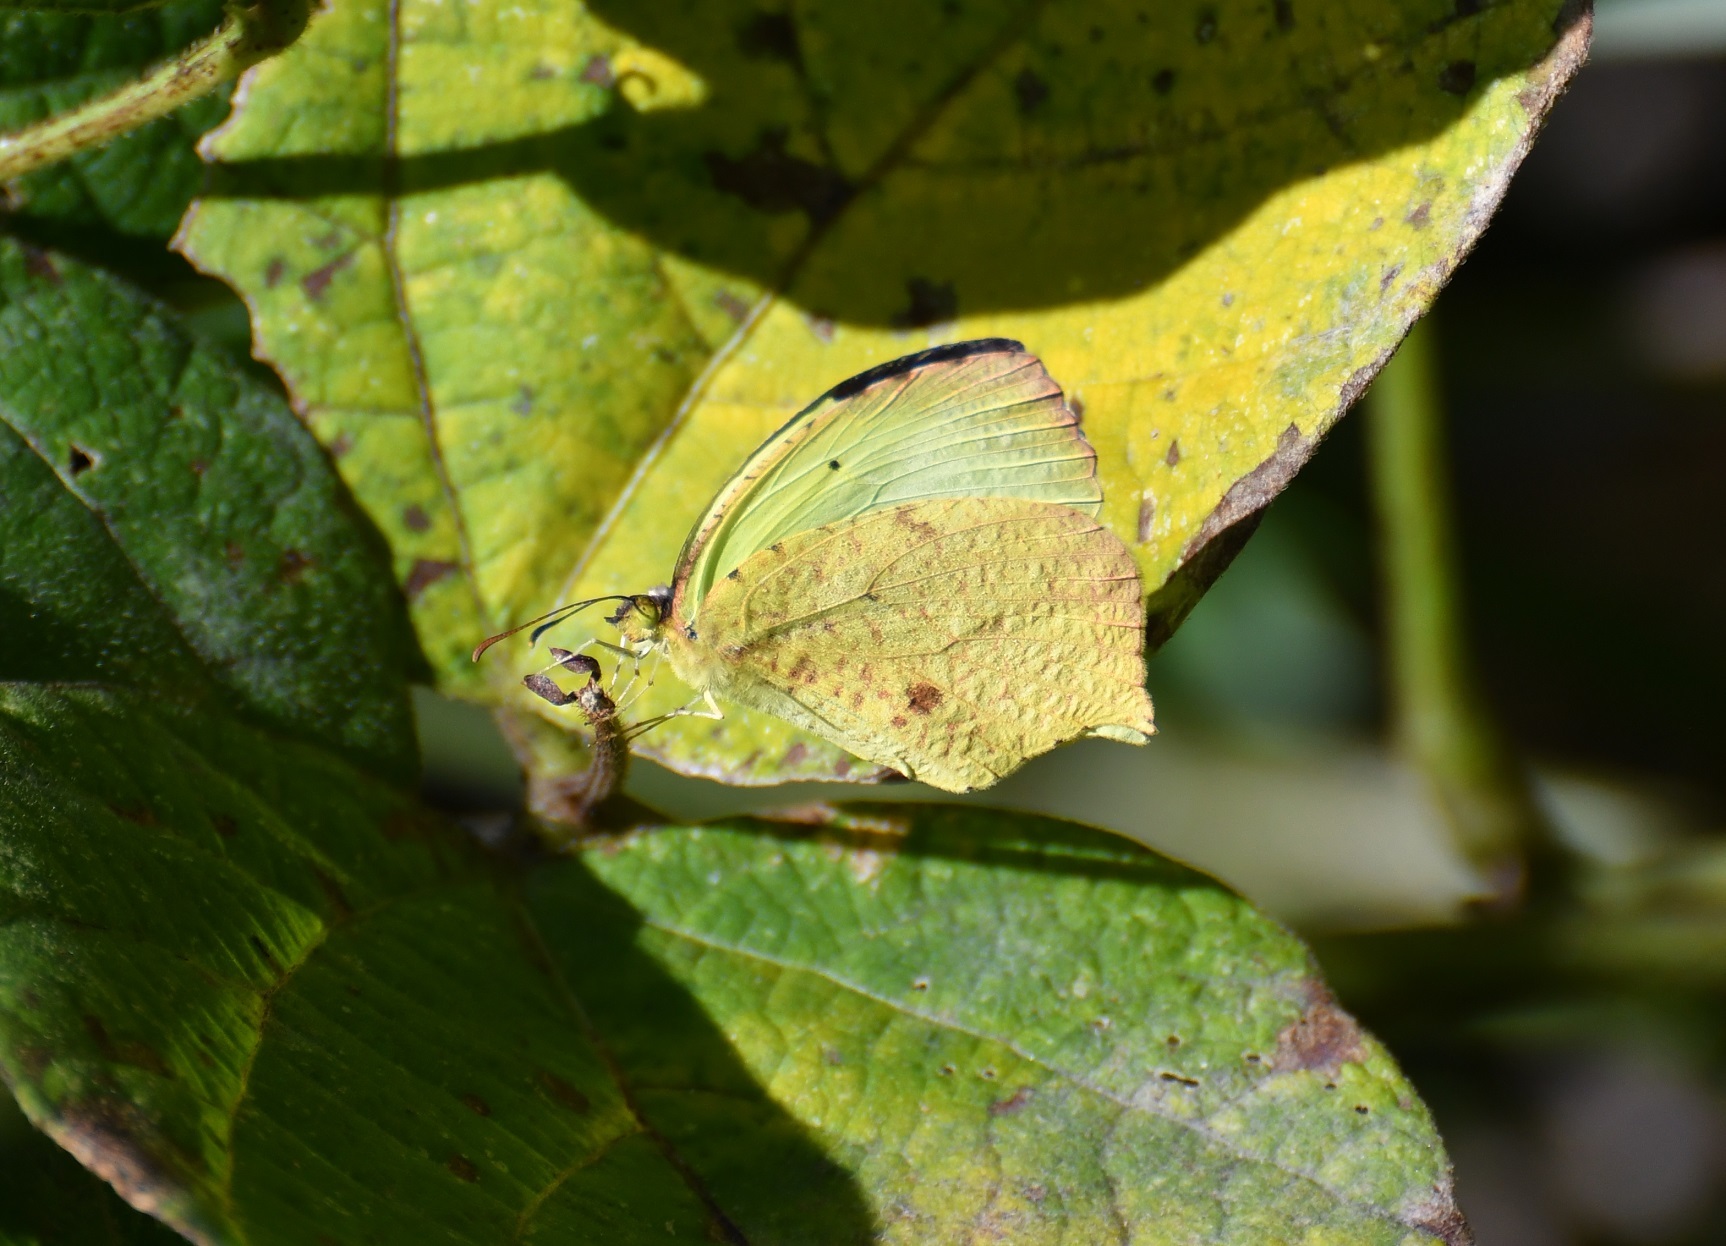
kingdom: Animalia
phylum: Arthropoda
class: Insecta
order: Lepidoptera
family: Pieridae
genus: Abaeis
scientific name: Abaeis salome
